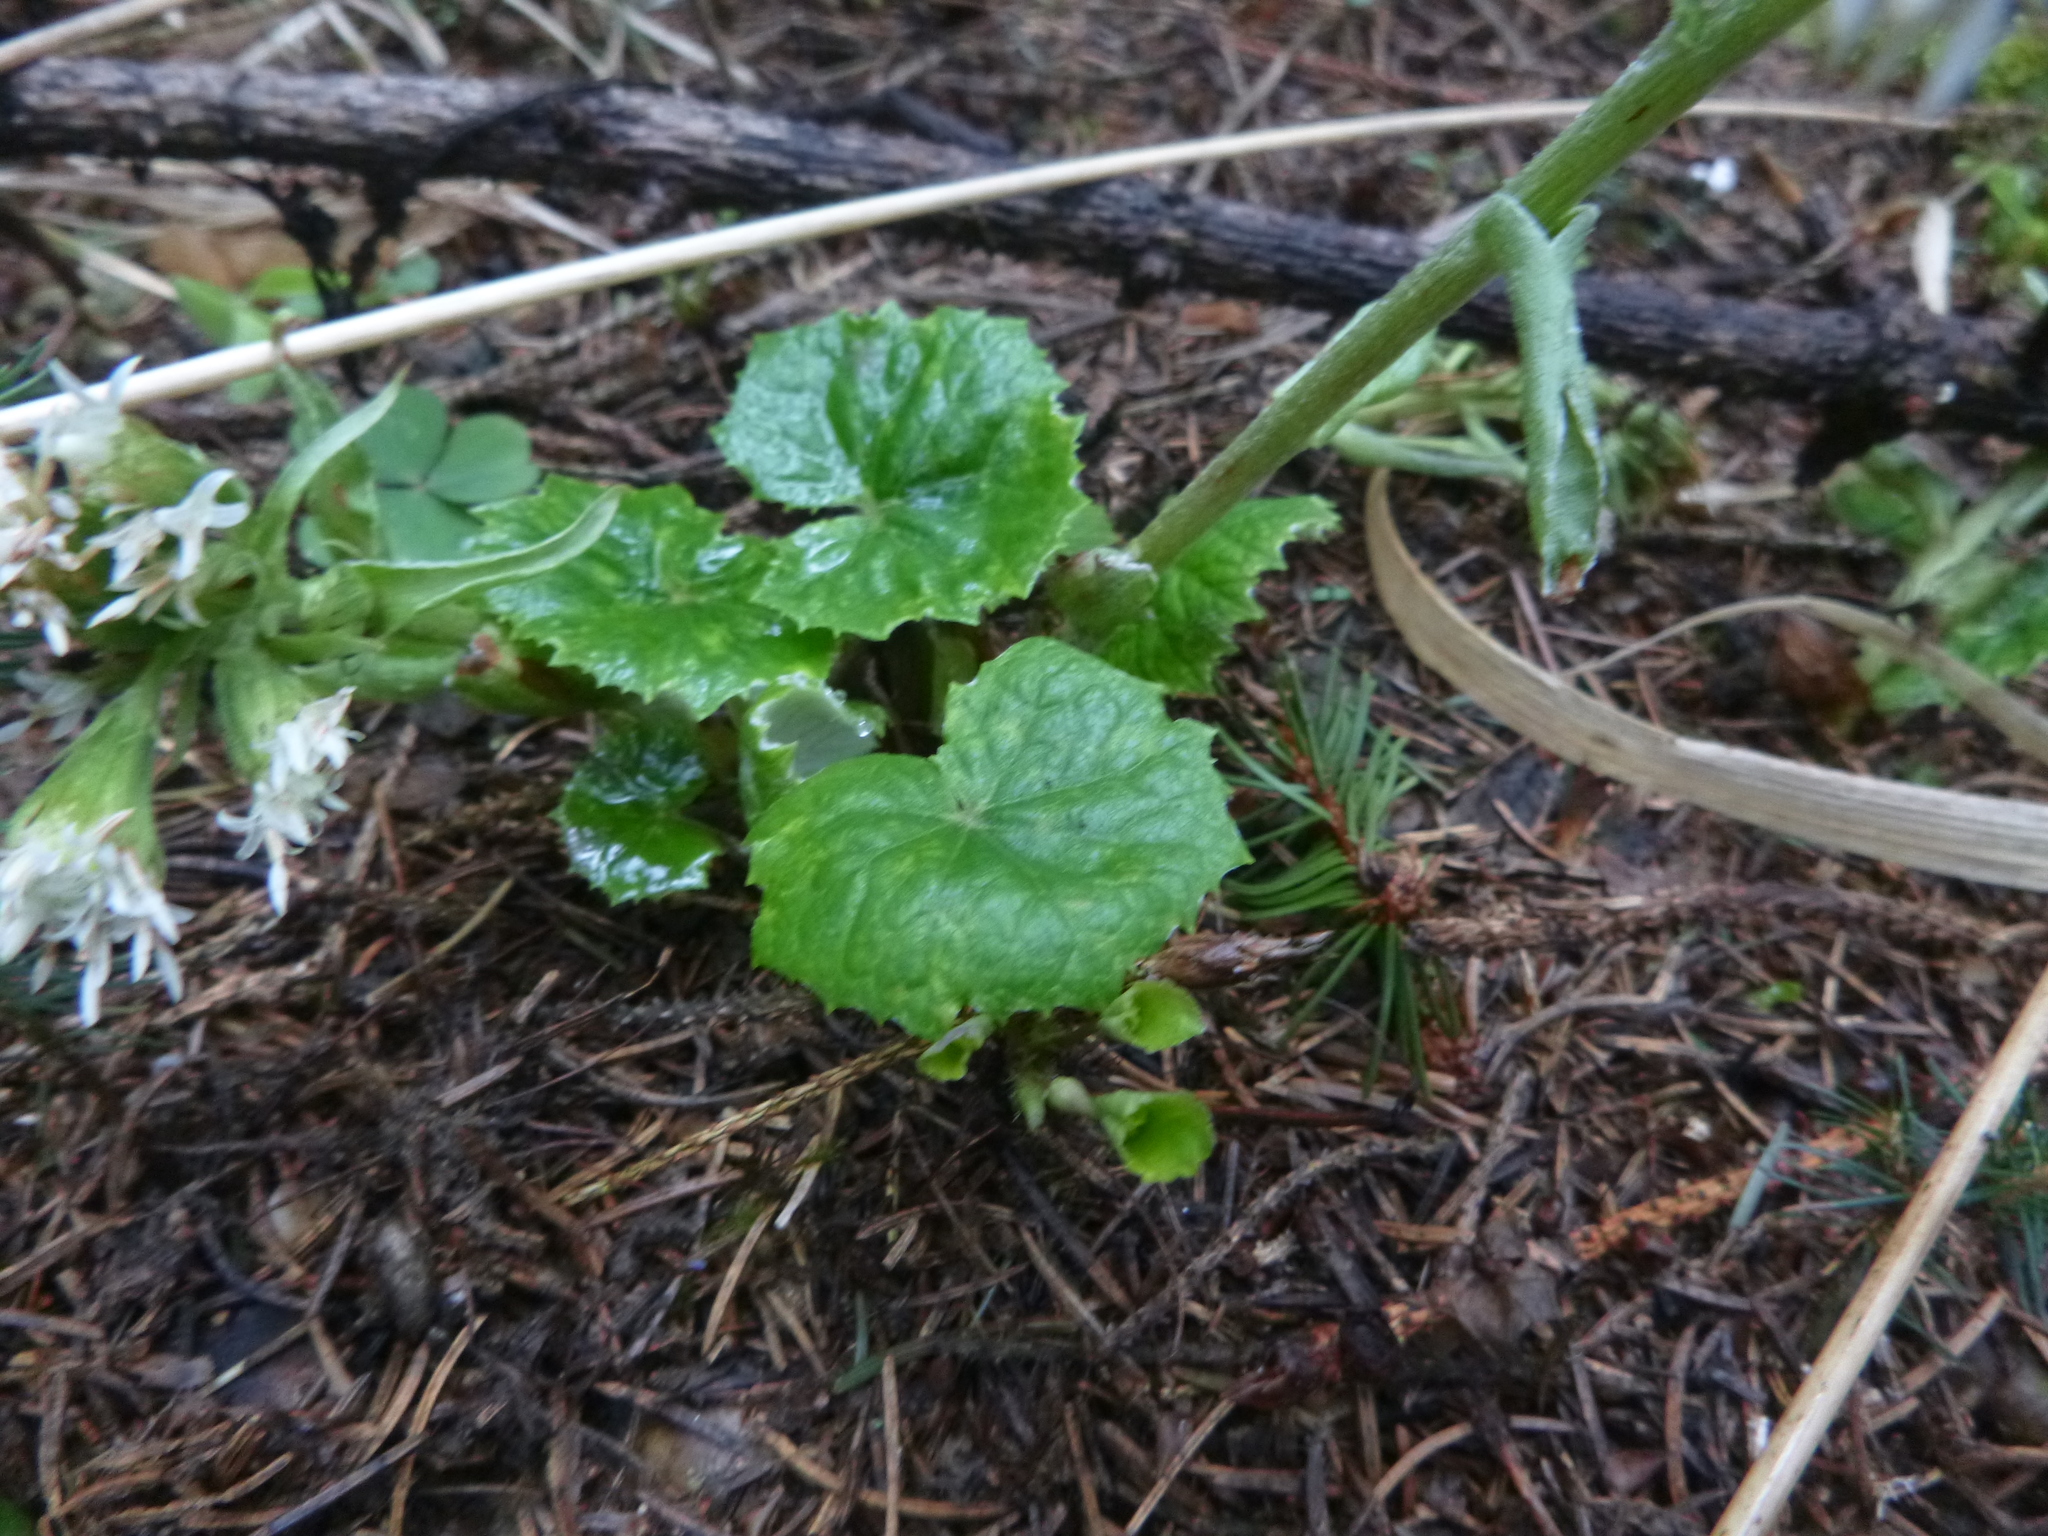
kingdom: Plantae
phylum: Tracheophyta
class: Magnoliopsida
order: Asterales
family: Asteraceae
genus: Petasites
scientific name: Petasites albus
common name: White butterbur
